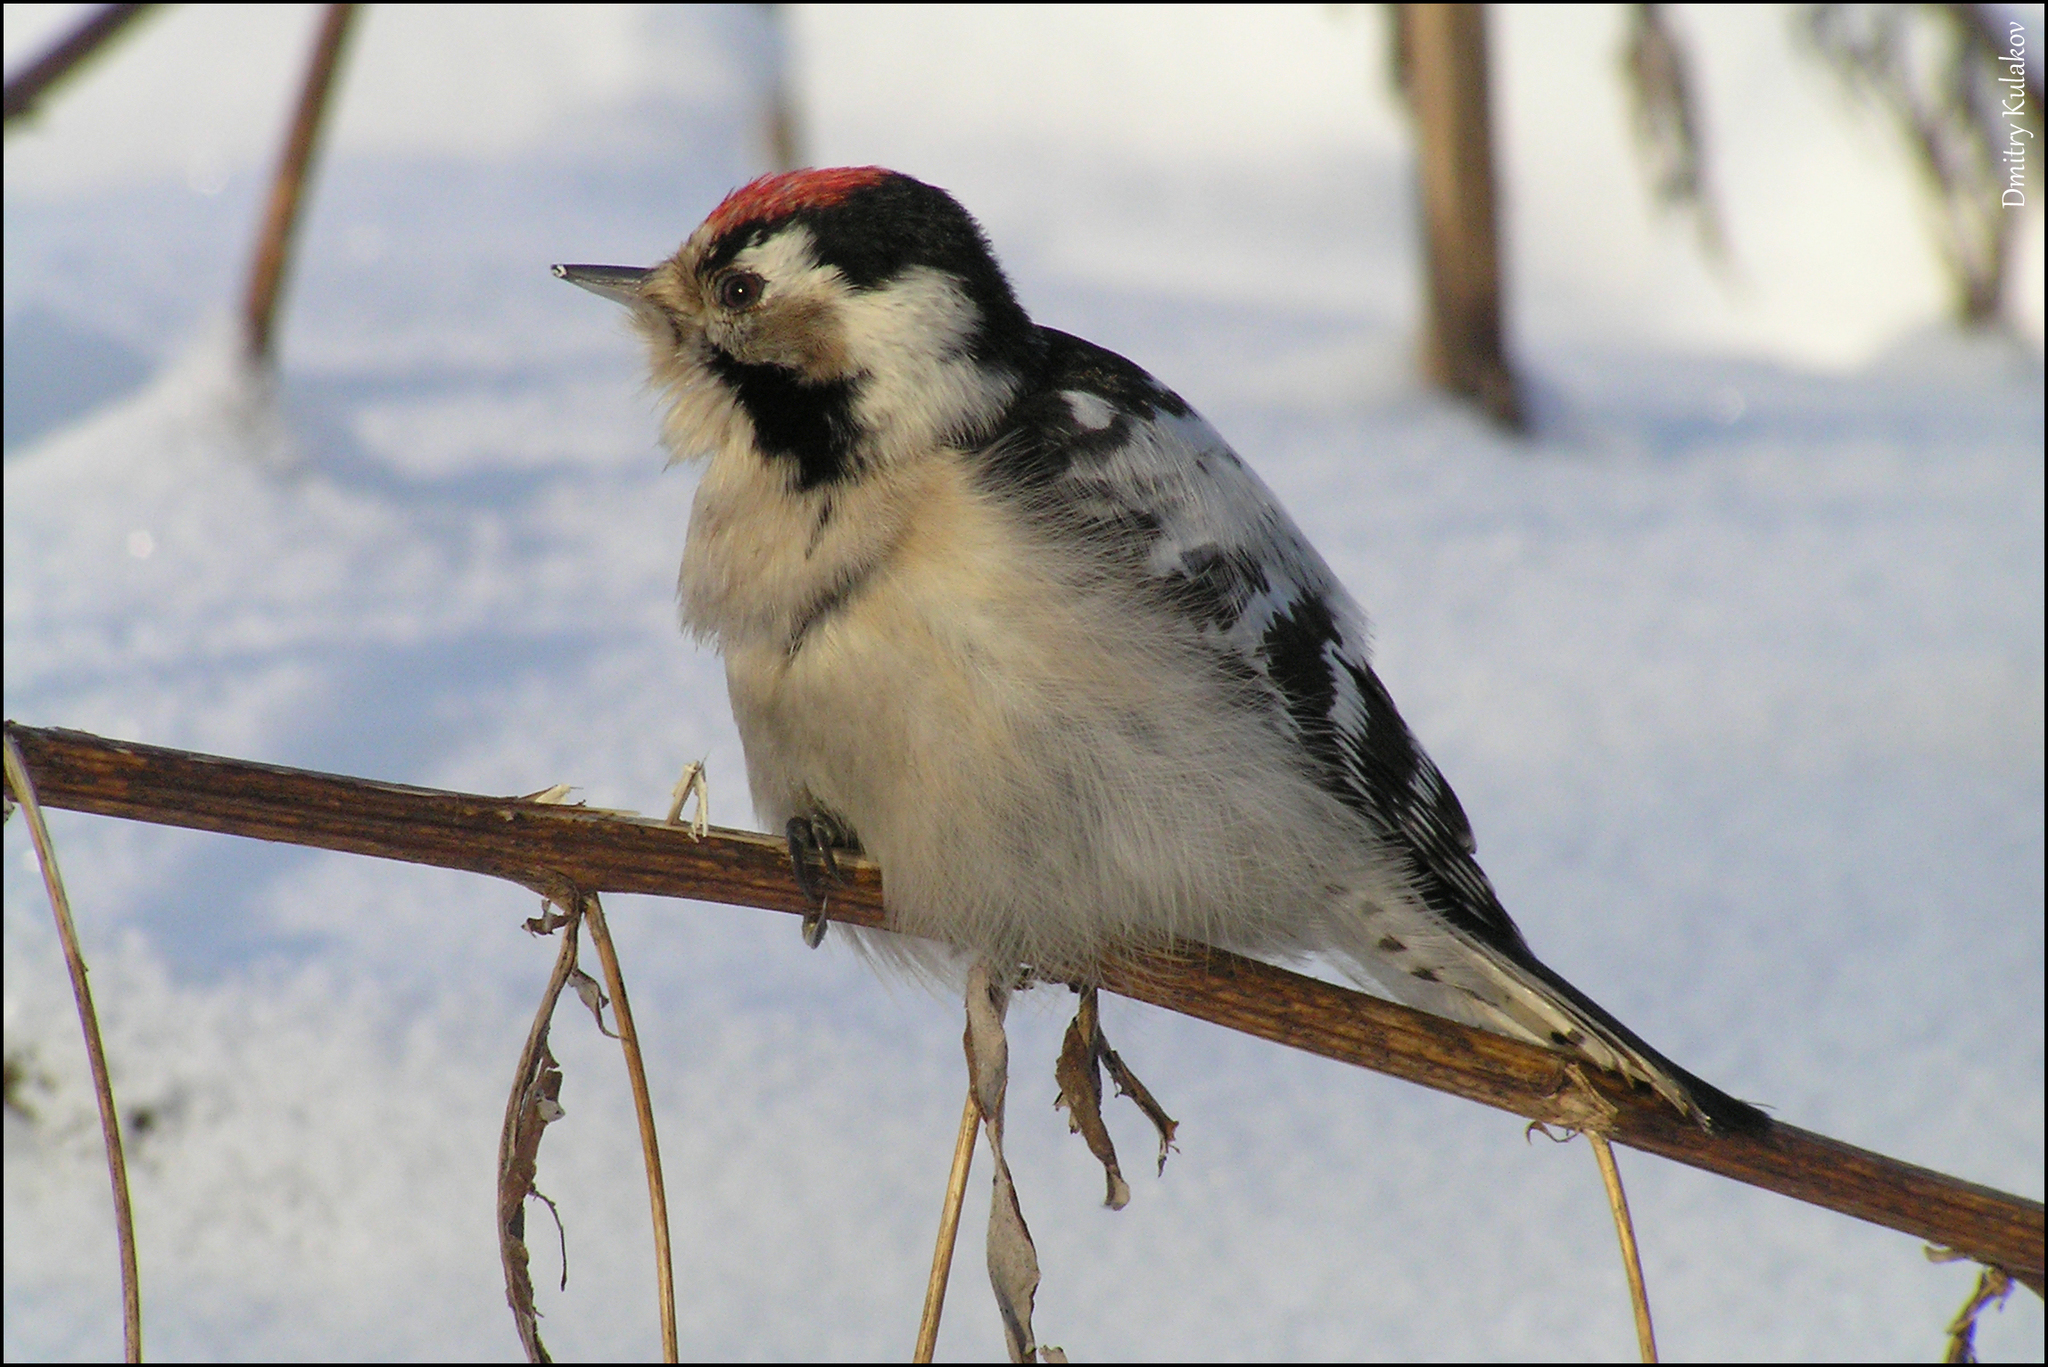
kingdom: Animalia
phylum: Chordata
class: Aves
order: Piciformes
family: Picidae
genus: Dryobates
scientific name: Dryobates minor
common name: Lesser spotted woodpecker
